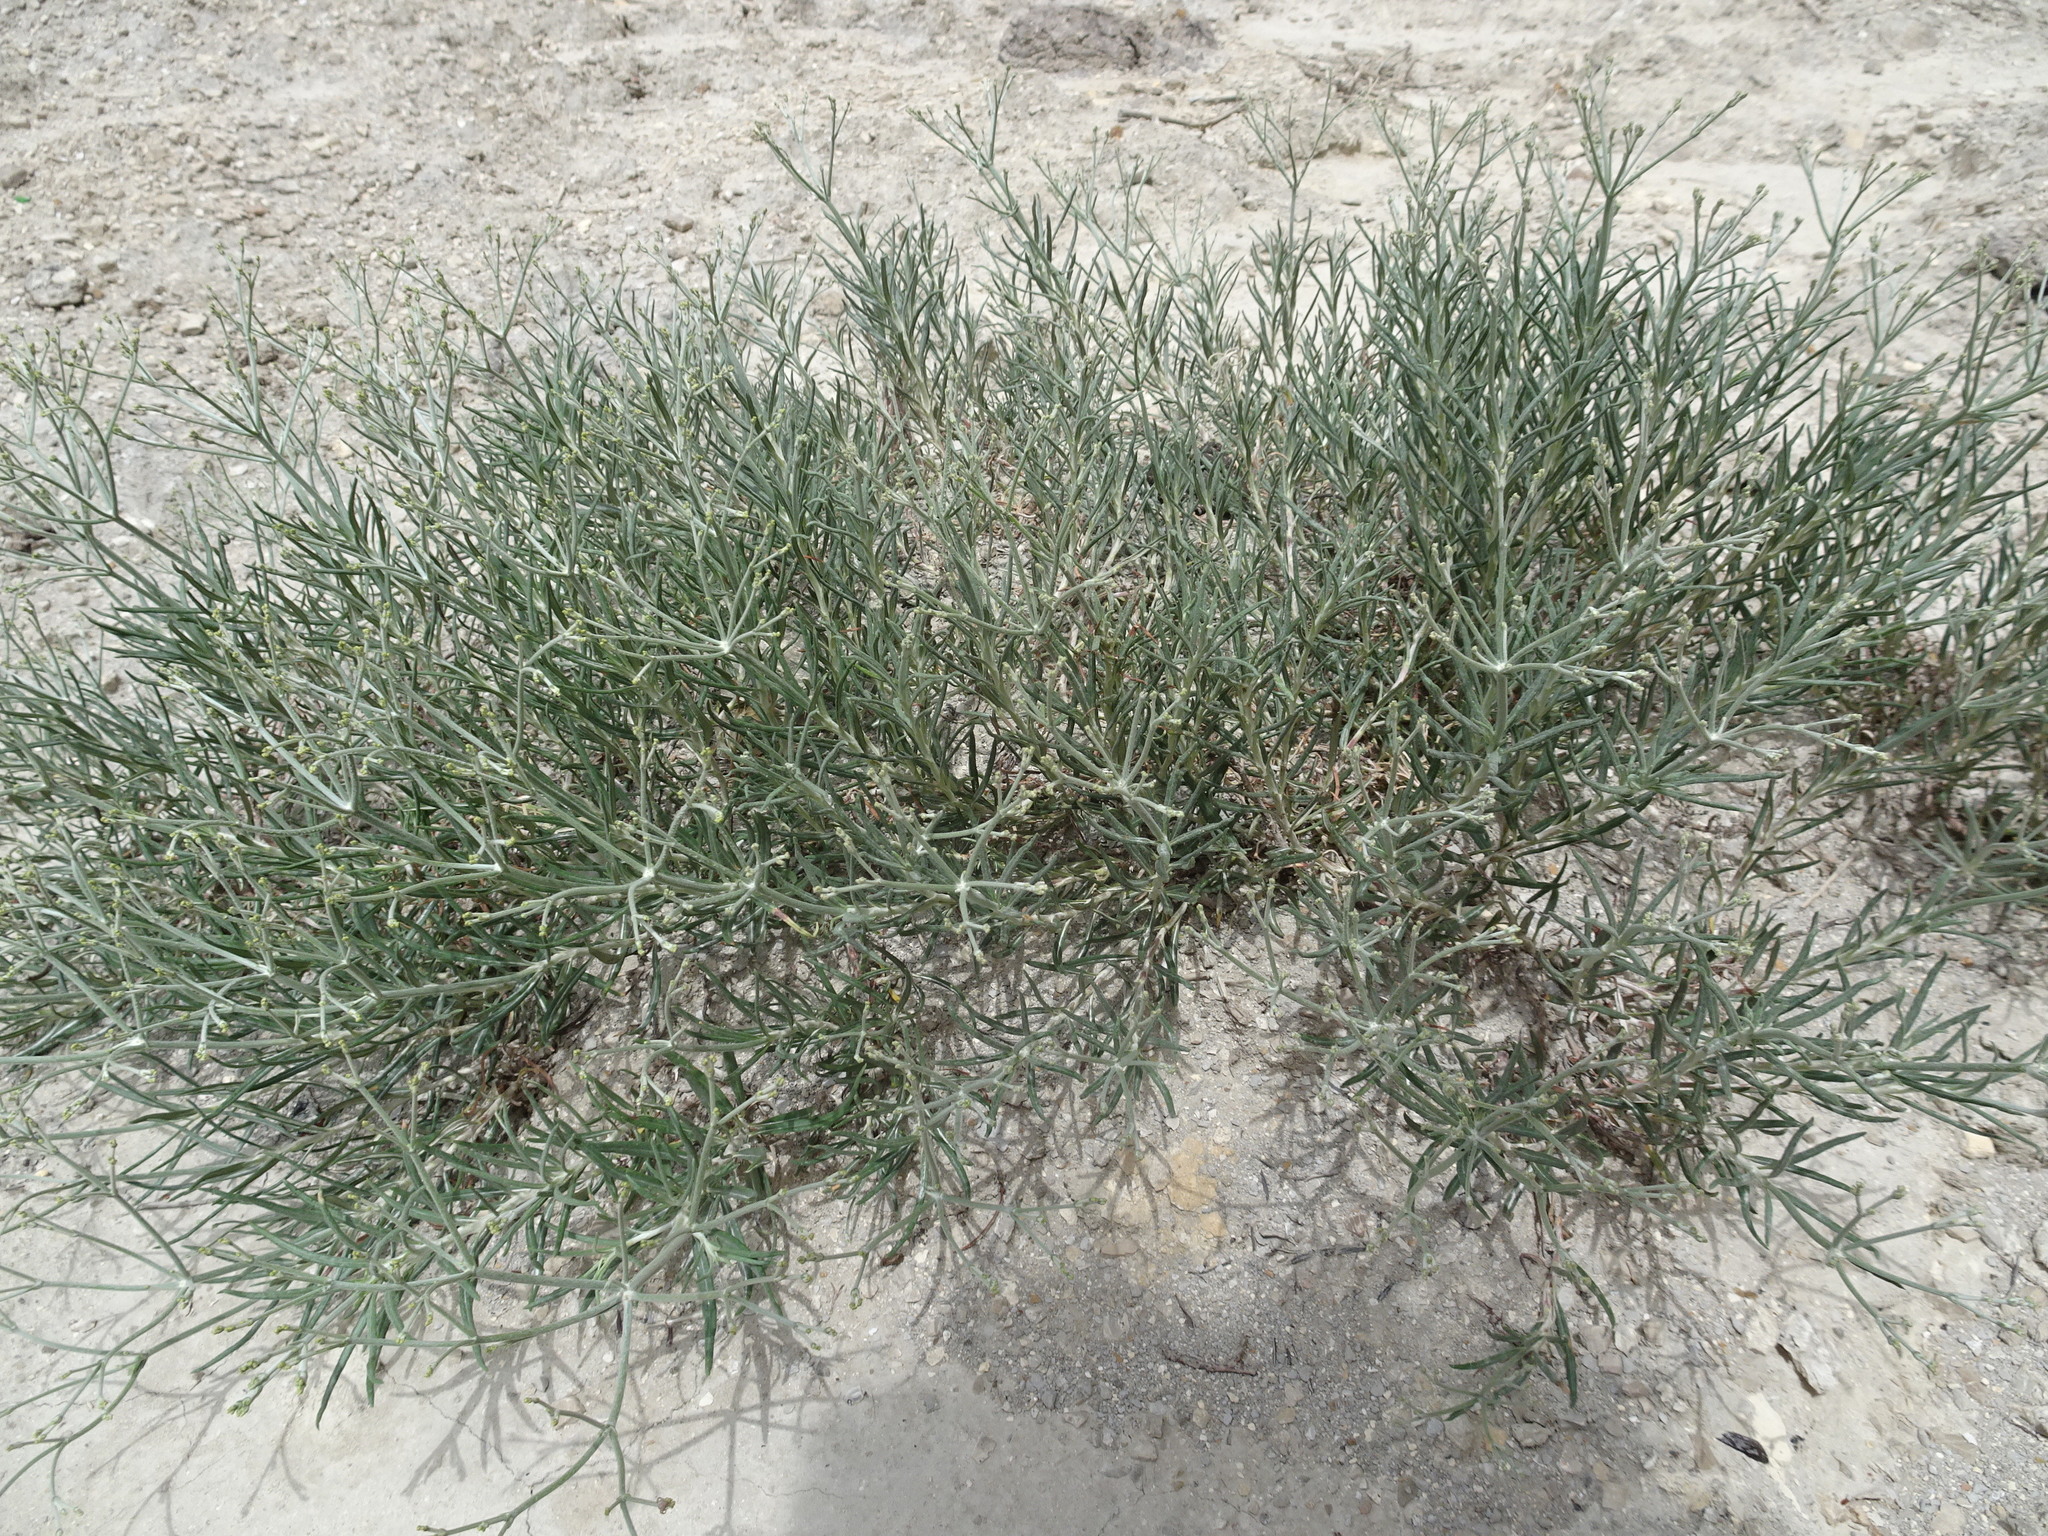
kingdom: Plantae
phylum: Tracheophyta
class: Magnoliopsida
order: Caryophyllales
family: Polygonaceae
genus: Eriogonum
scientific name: Eriogonum helichrysoides
